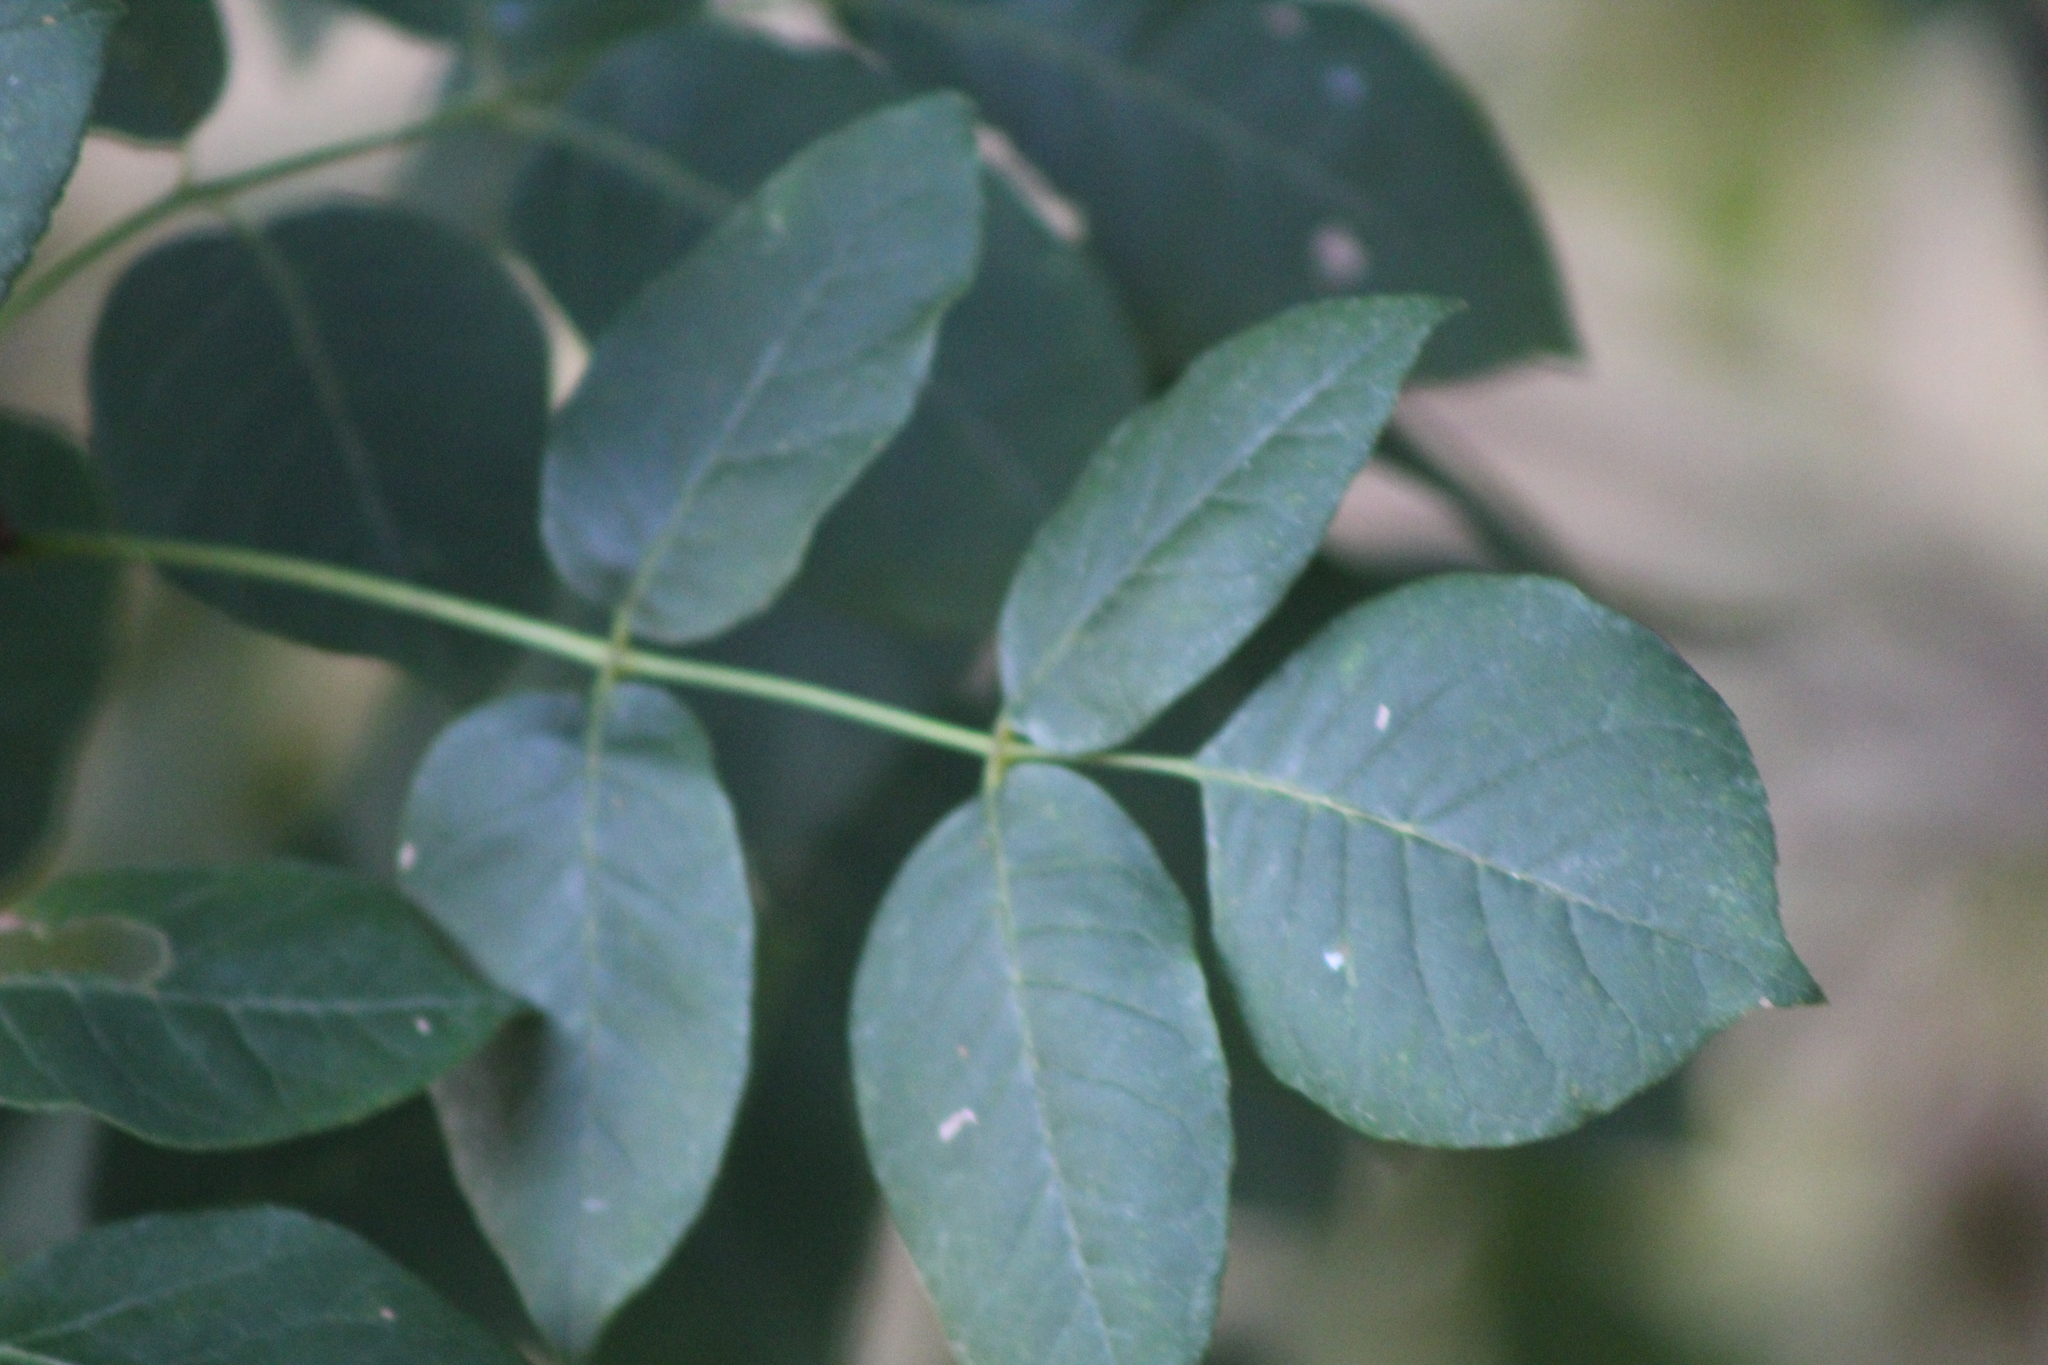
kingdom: Plantae
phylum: Tracheophyta
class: Magnoliopsida
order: Lamiales
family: Oleaceae
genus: Fraxinus
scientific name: Fraxinus albicans
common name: Texas ash
